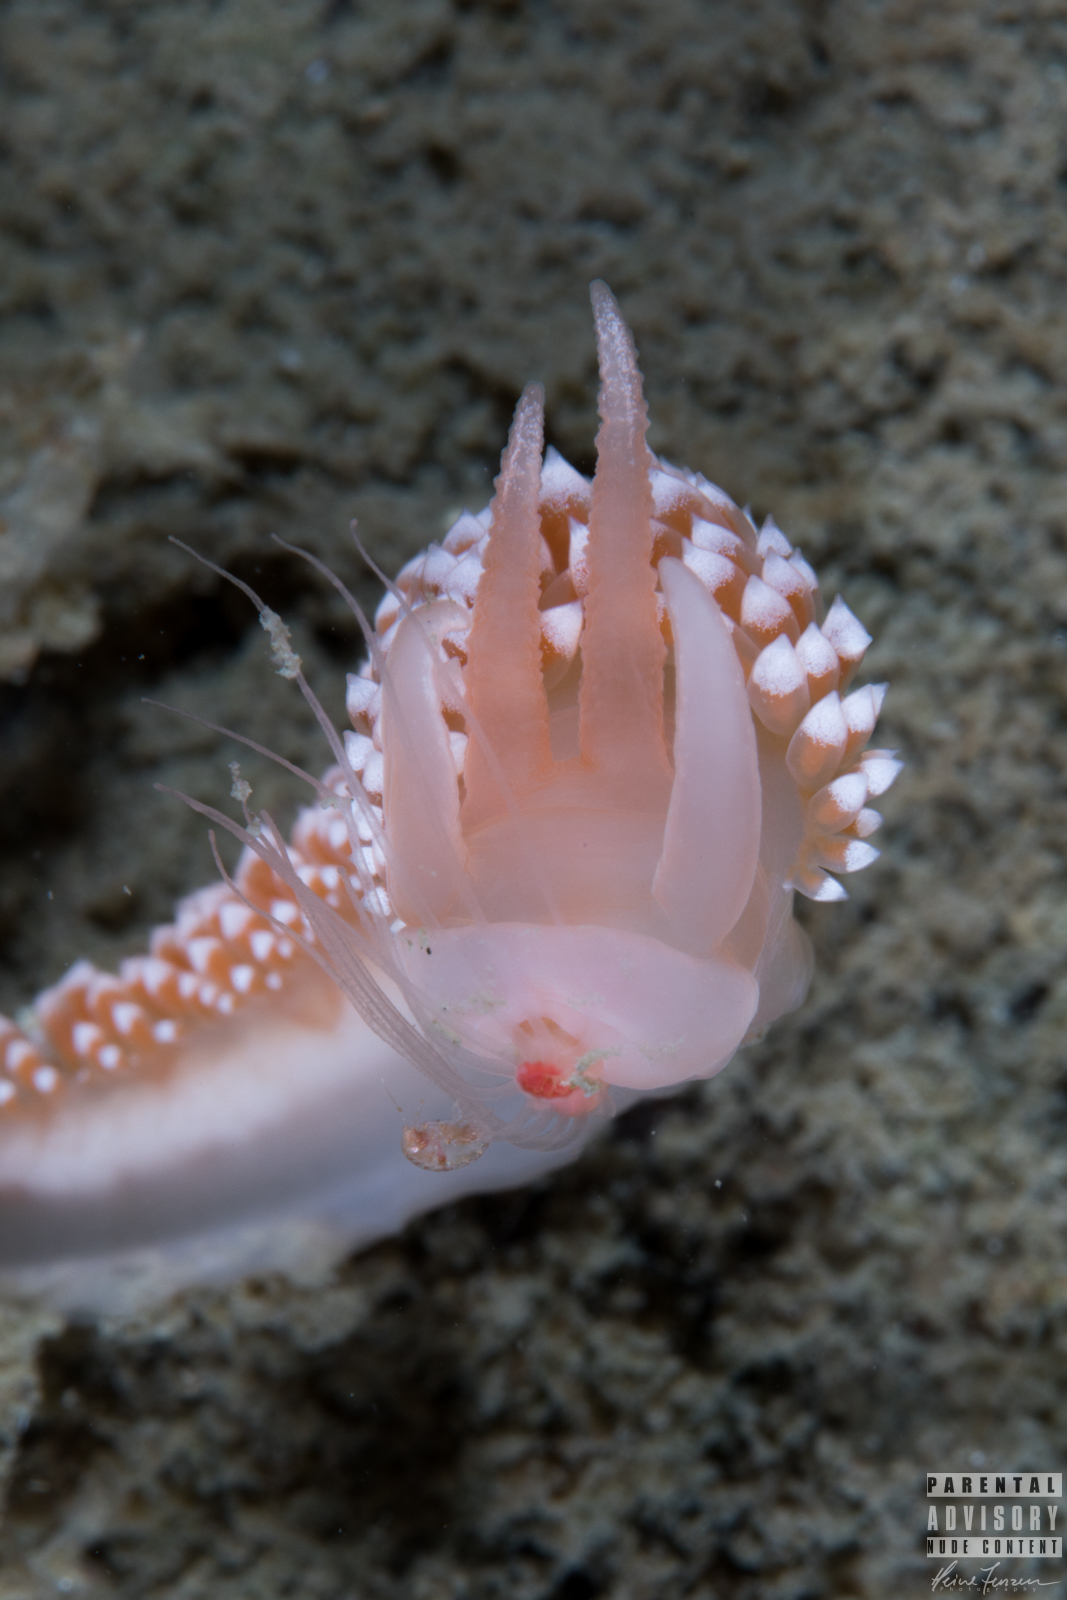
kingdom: Animalia
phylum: Mollusca
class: Gastropoda
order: Nudibranchia
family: Coryphellidae
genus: Coryphella
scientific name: Coryphella verrucosa
